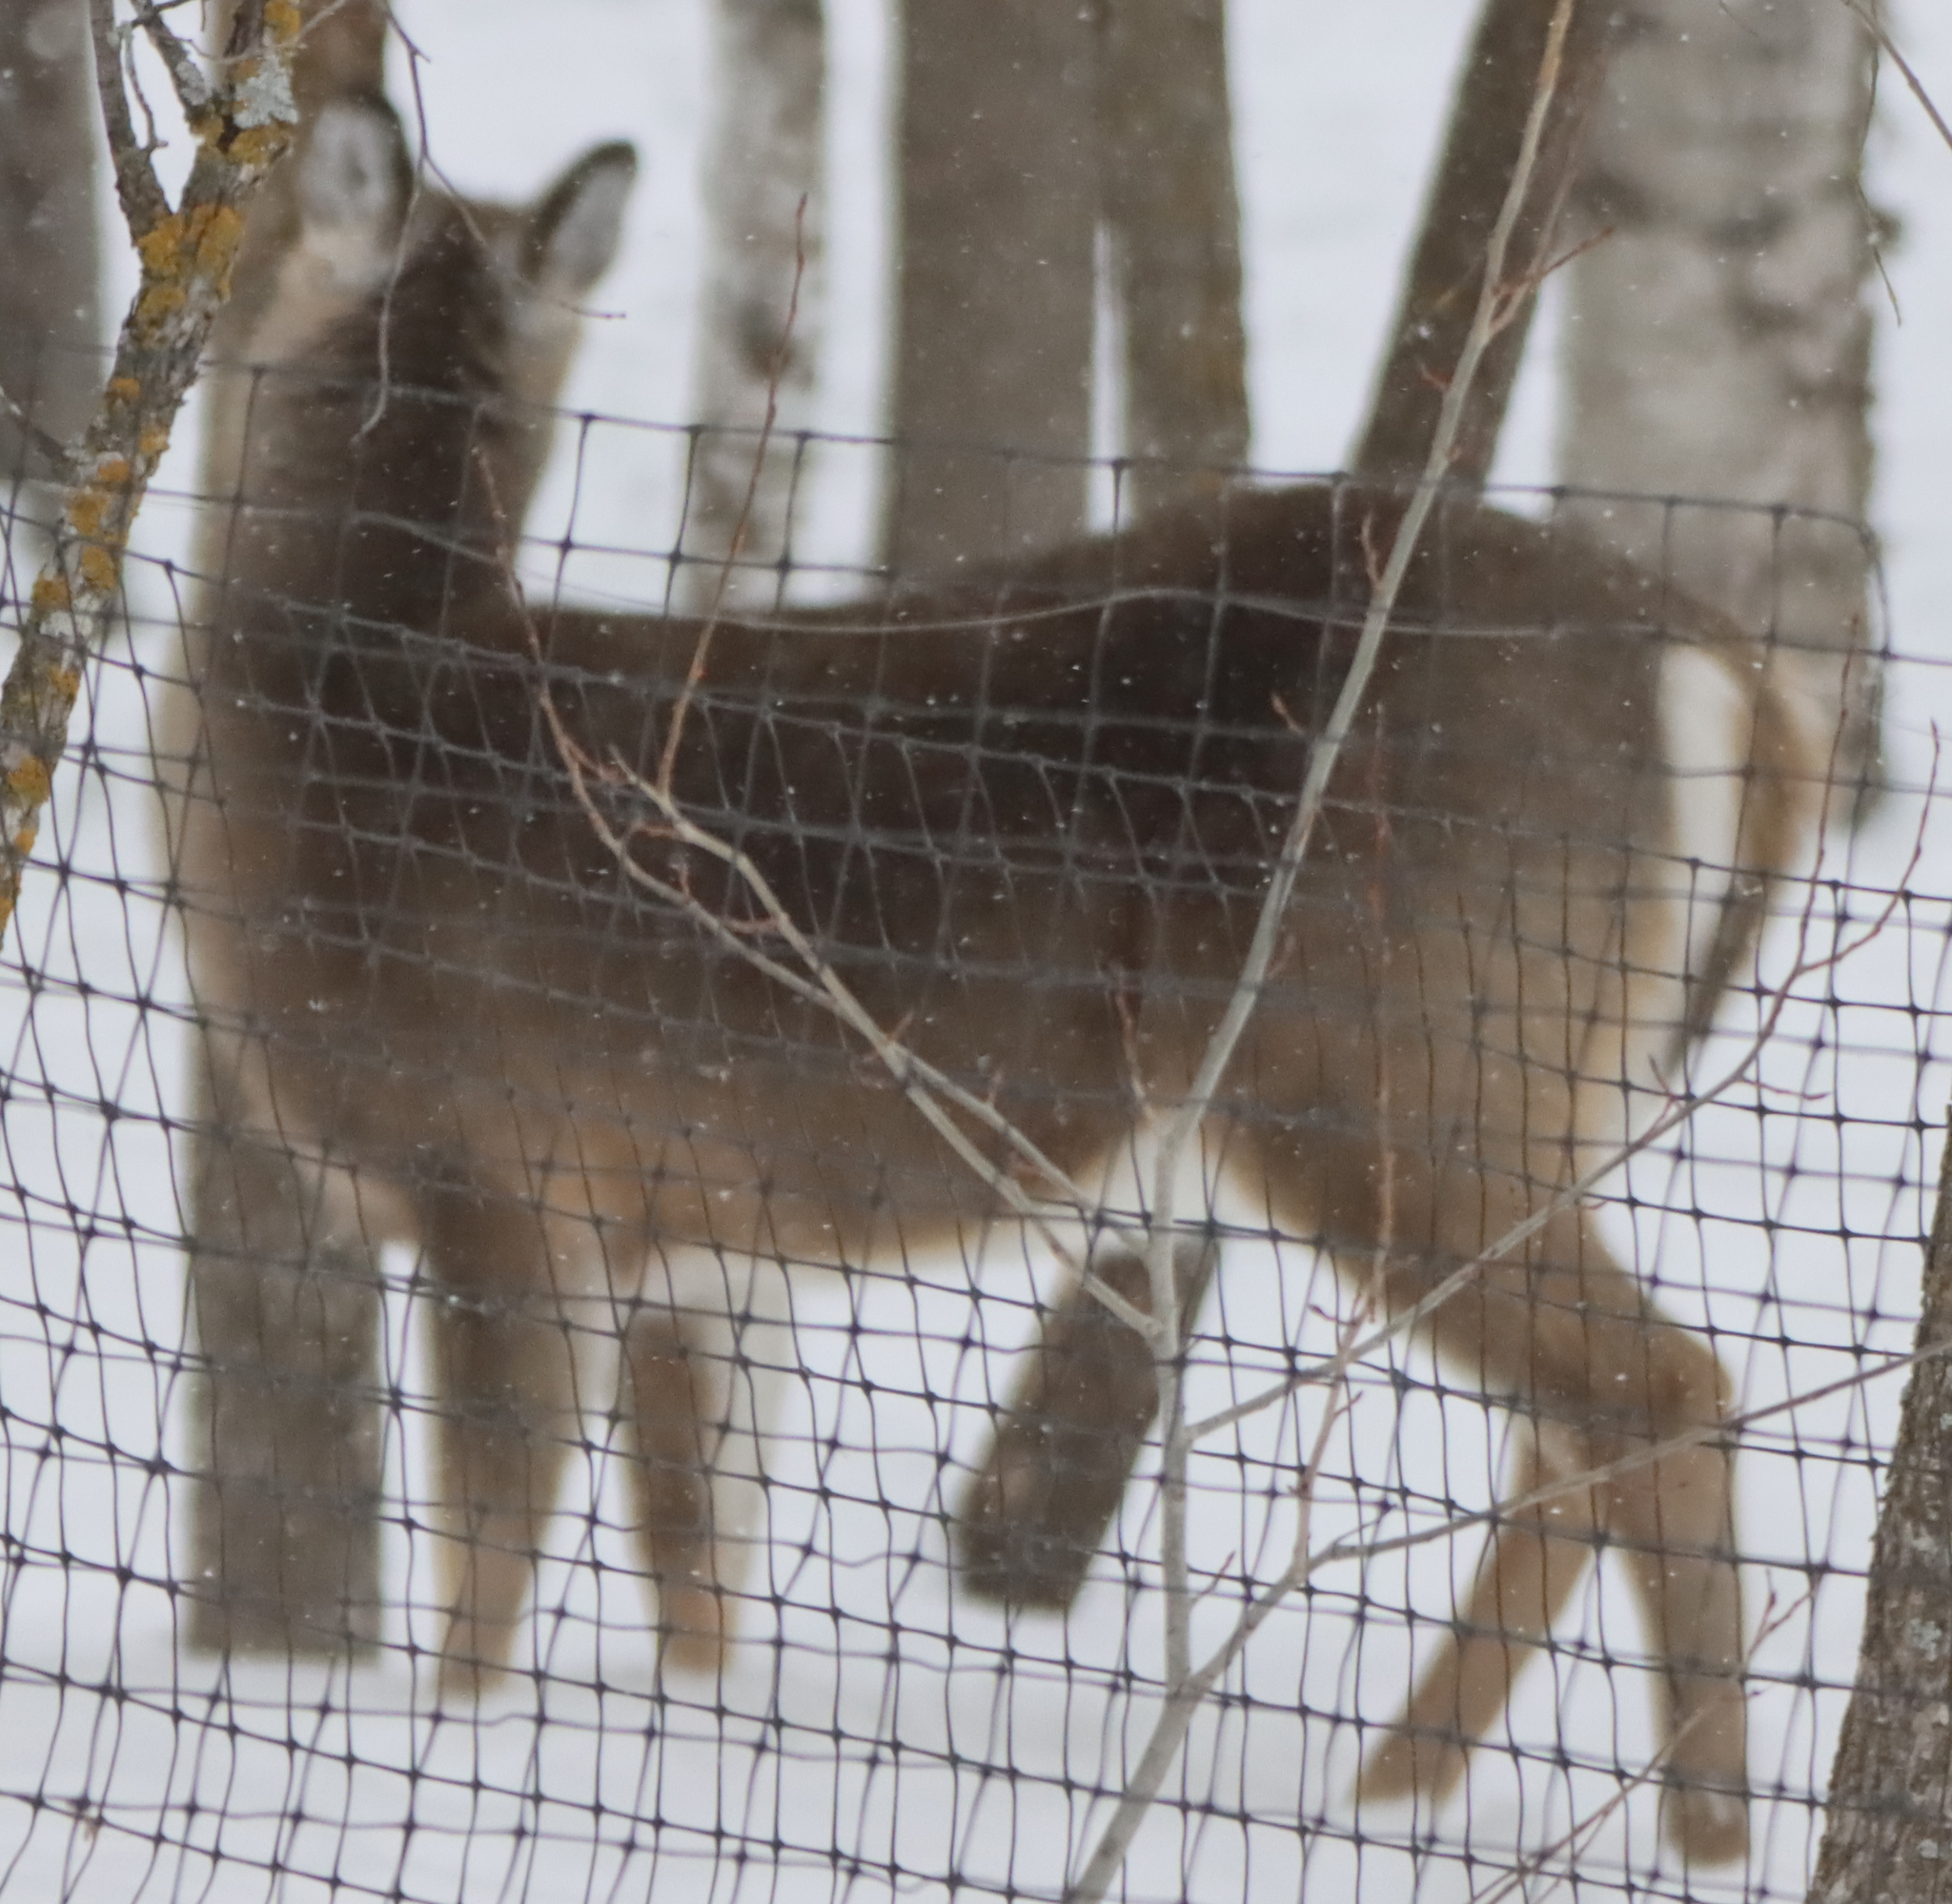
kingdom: Animalia
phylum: Chordata
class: Mammalia
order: Artiodactyla
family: Cervidae
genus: Odocoileus
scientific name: Odocoileus virginianus
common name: White-tailed deer
